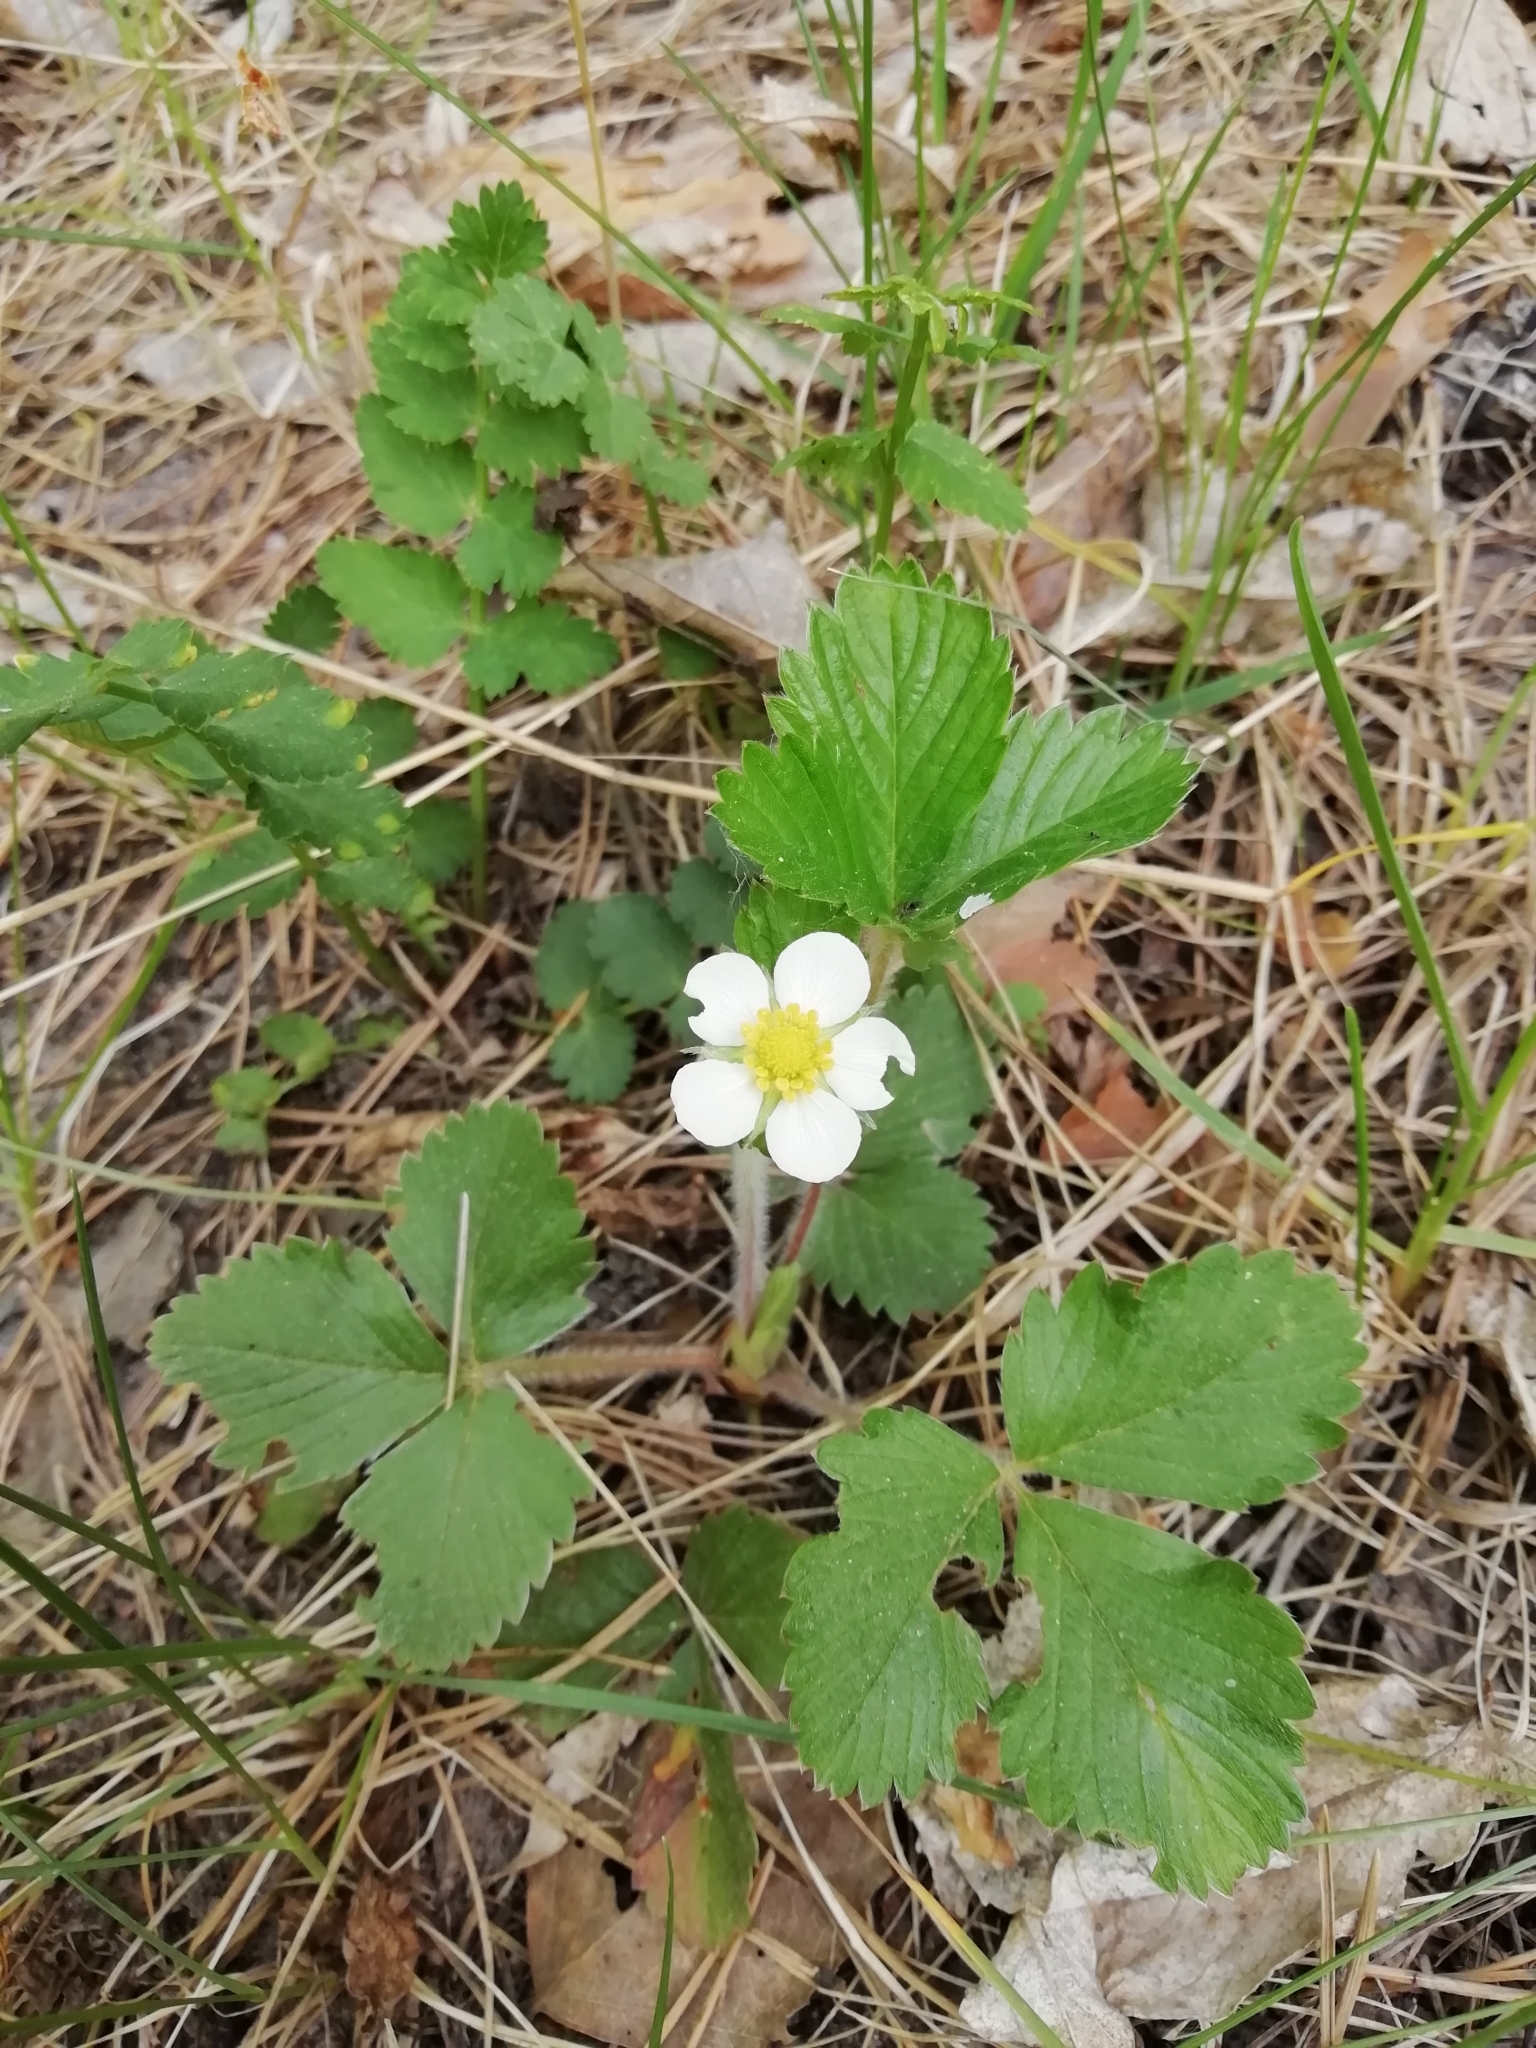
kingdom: Plantae
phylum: Tracheophyta
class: Magnoliopsida
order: Rosales
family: Rosaceae
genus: Fragaria
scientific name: Fragaria vesca
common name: Wild strawberry
